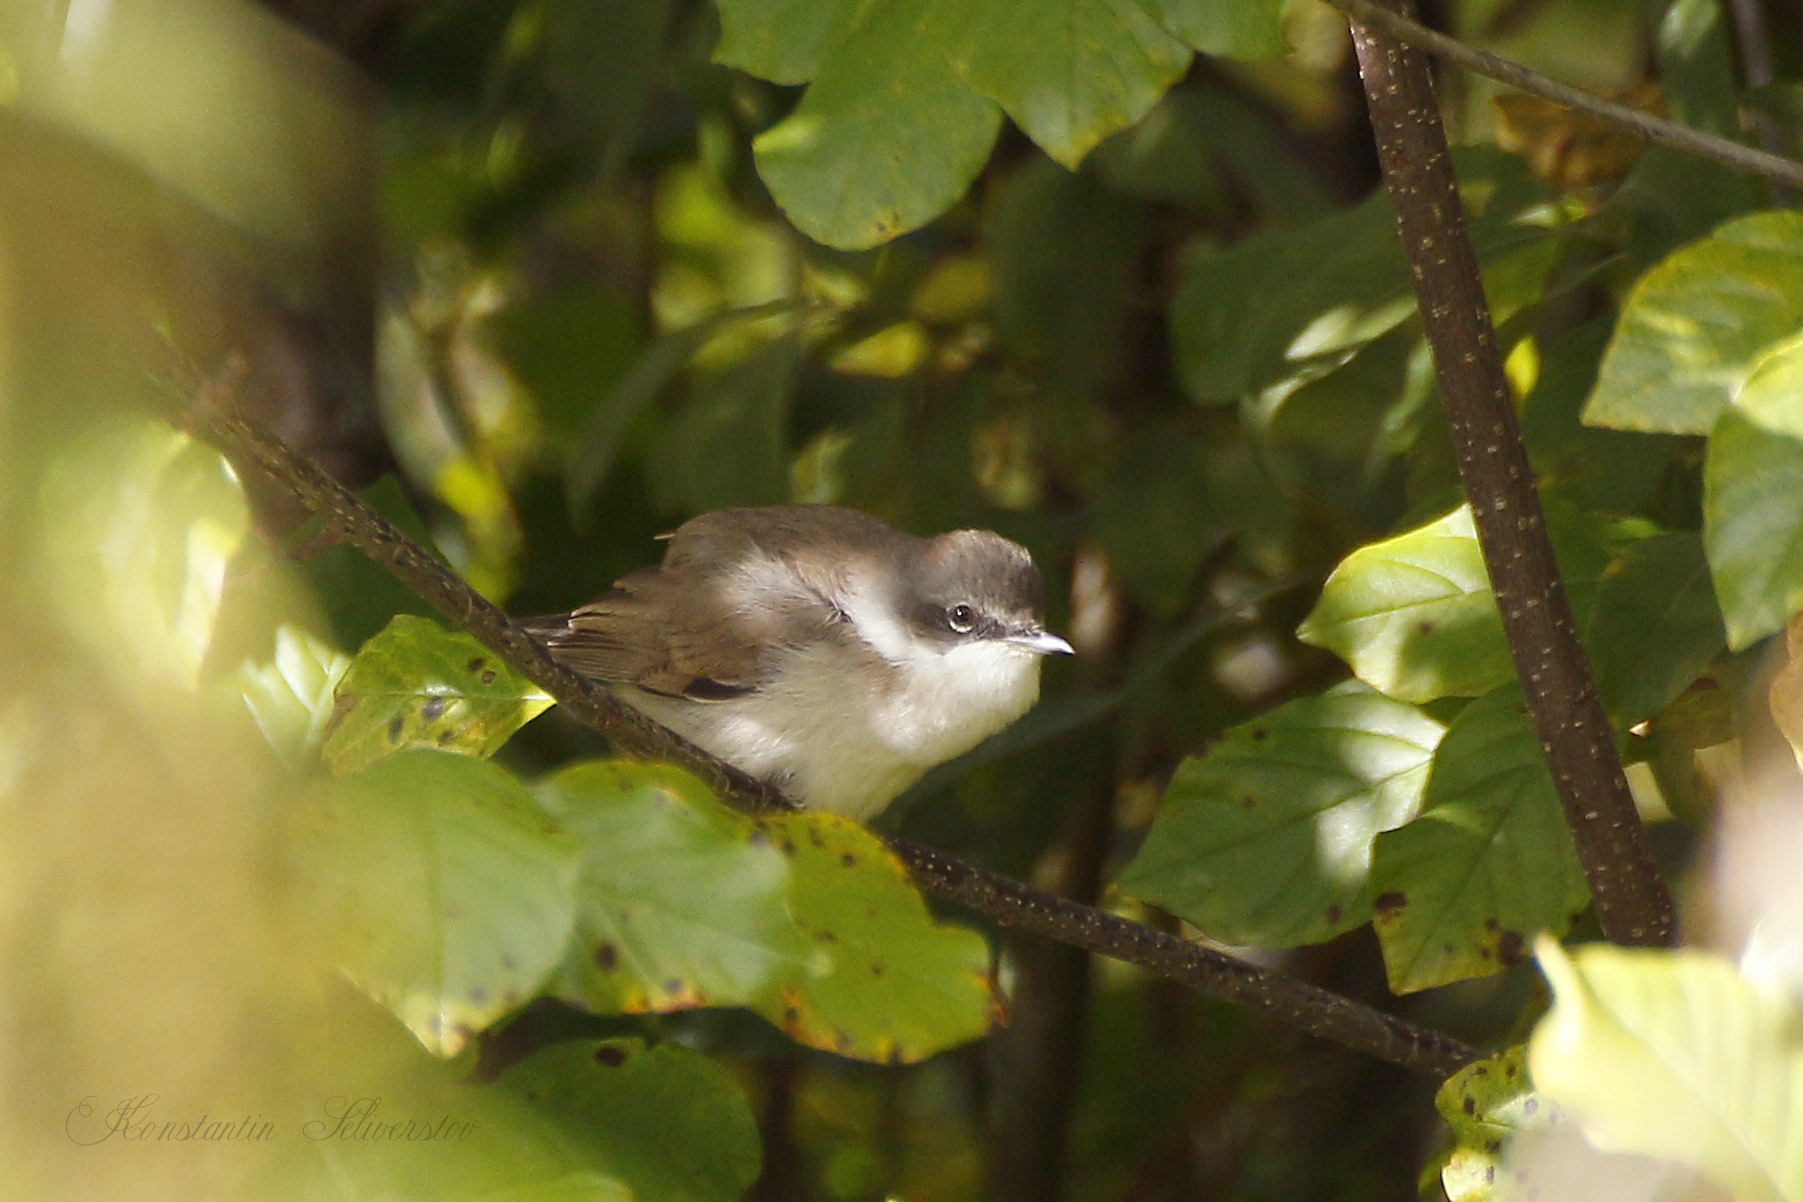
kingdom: Animalia
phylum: Chordata
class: Aves
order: Passeriformes
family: Sylviidae
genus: Sylvia
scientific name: Sylvia curruca
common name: Lesser whitethroat
